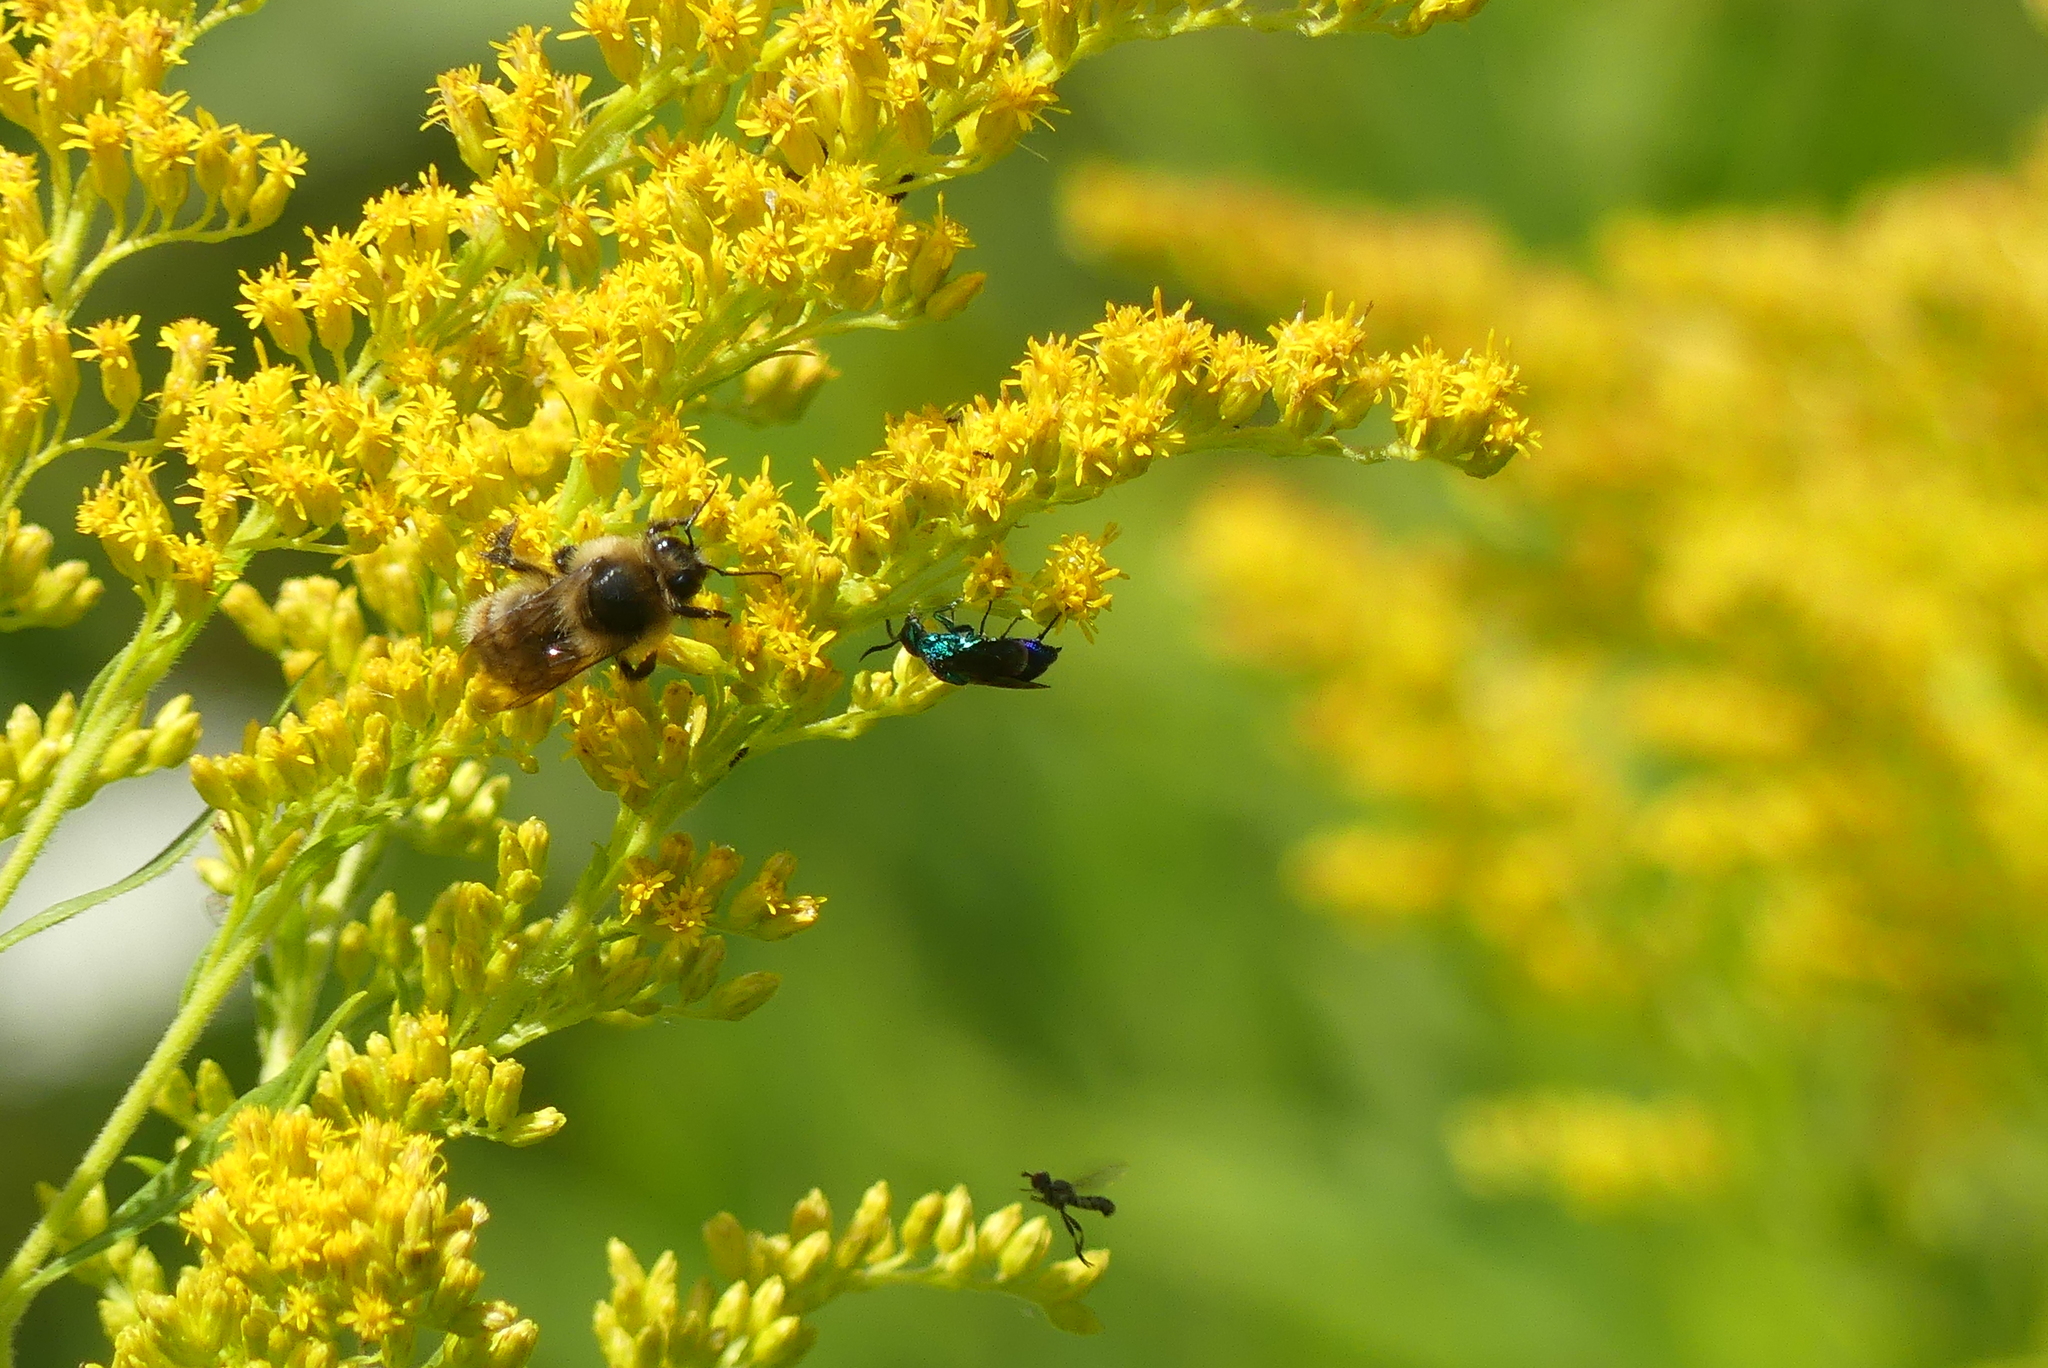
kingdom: Animalia
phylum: Arthropoda
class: Insecta
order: Hymenoptera
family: Apidae
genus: Bombus
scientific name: Bombus rufocinctus
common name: Red-belted bumble bee
